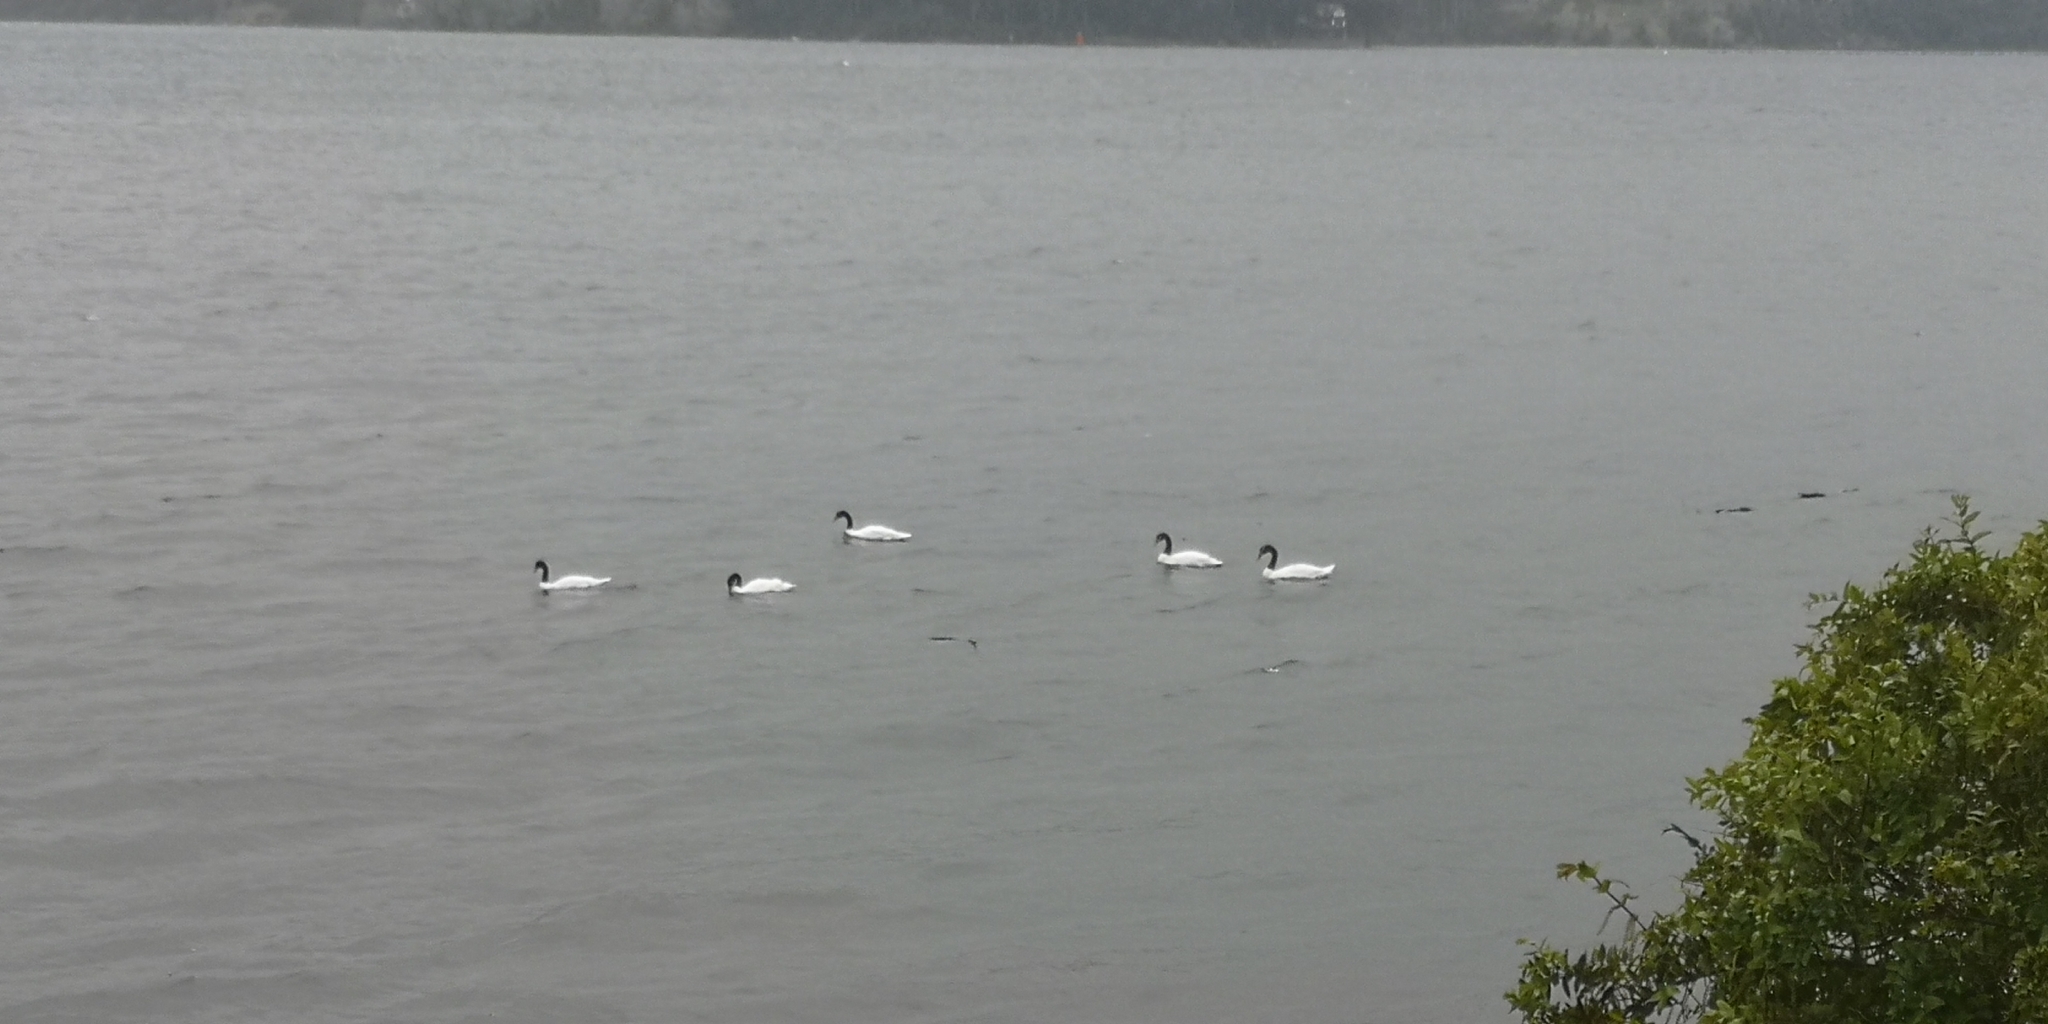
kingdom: Animalia
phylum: Chordata
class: Aves
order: Anseriformes
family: Anatidae
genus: Cygnus
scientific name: Cygnus melancoryphus
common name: Black-necked swan
